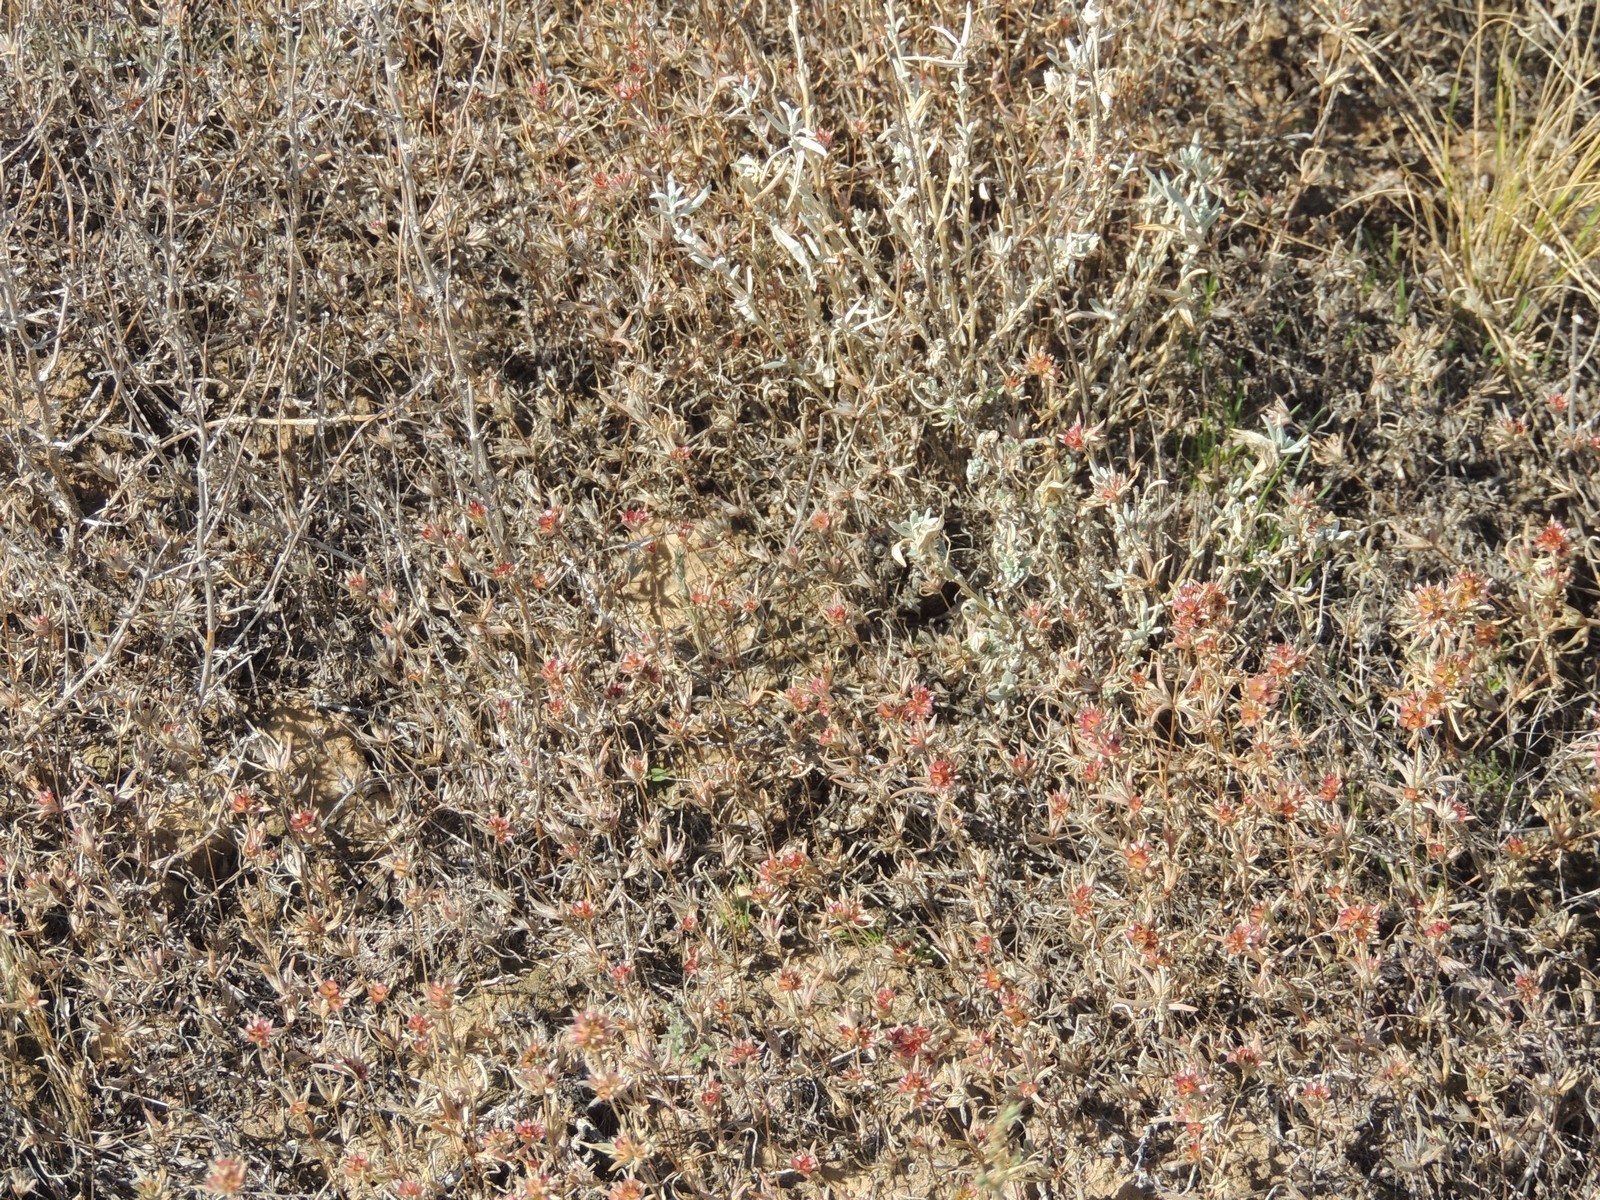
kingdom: Plantae
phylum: Tracheophyta
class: Magnoliopsida
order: Caryophyllales
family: Amaranthaceae
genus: Pyankovia
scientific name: Pyankovia brachiata
